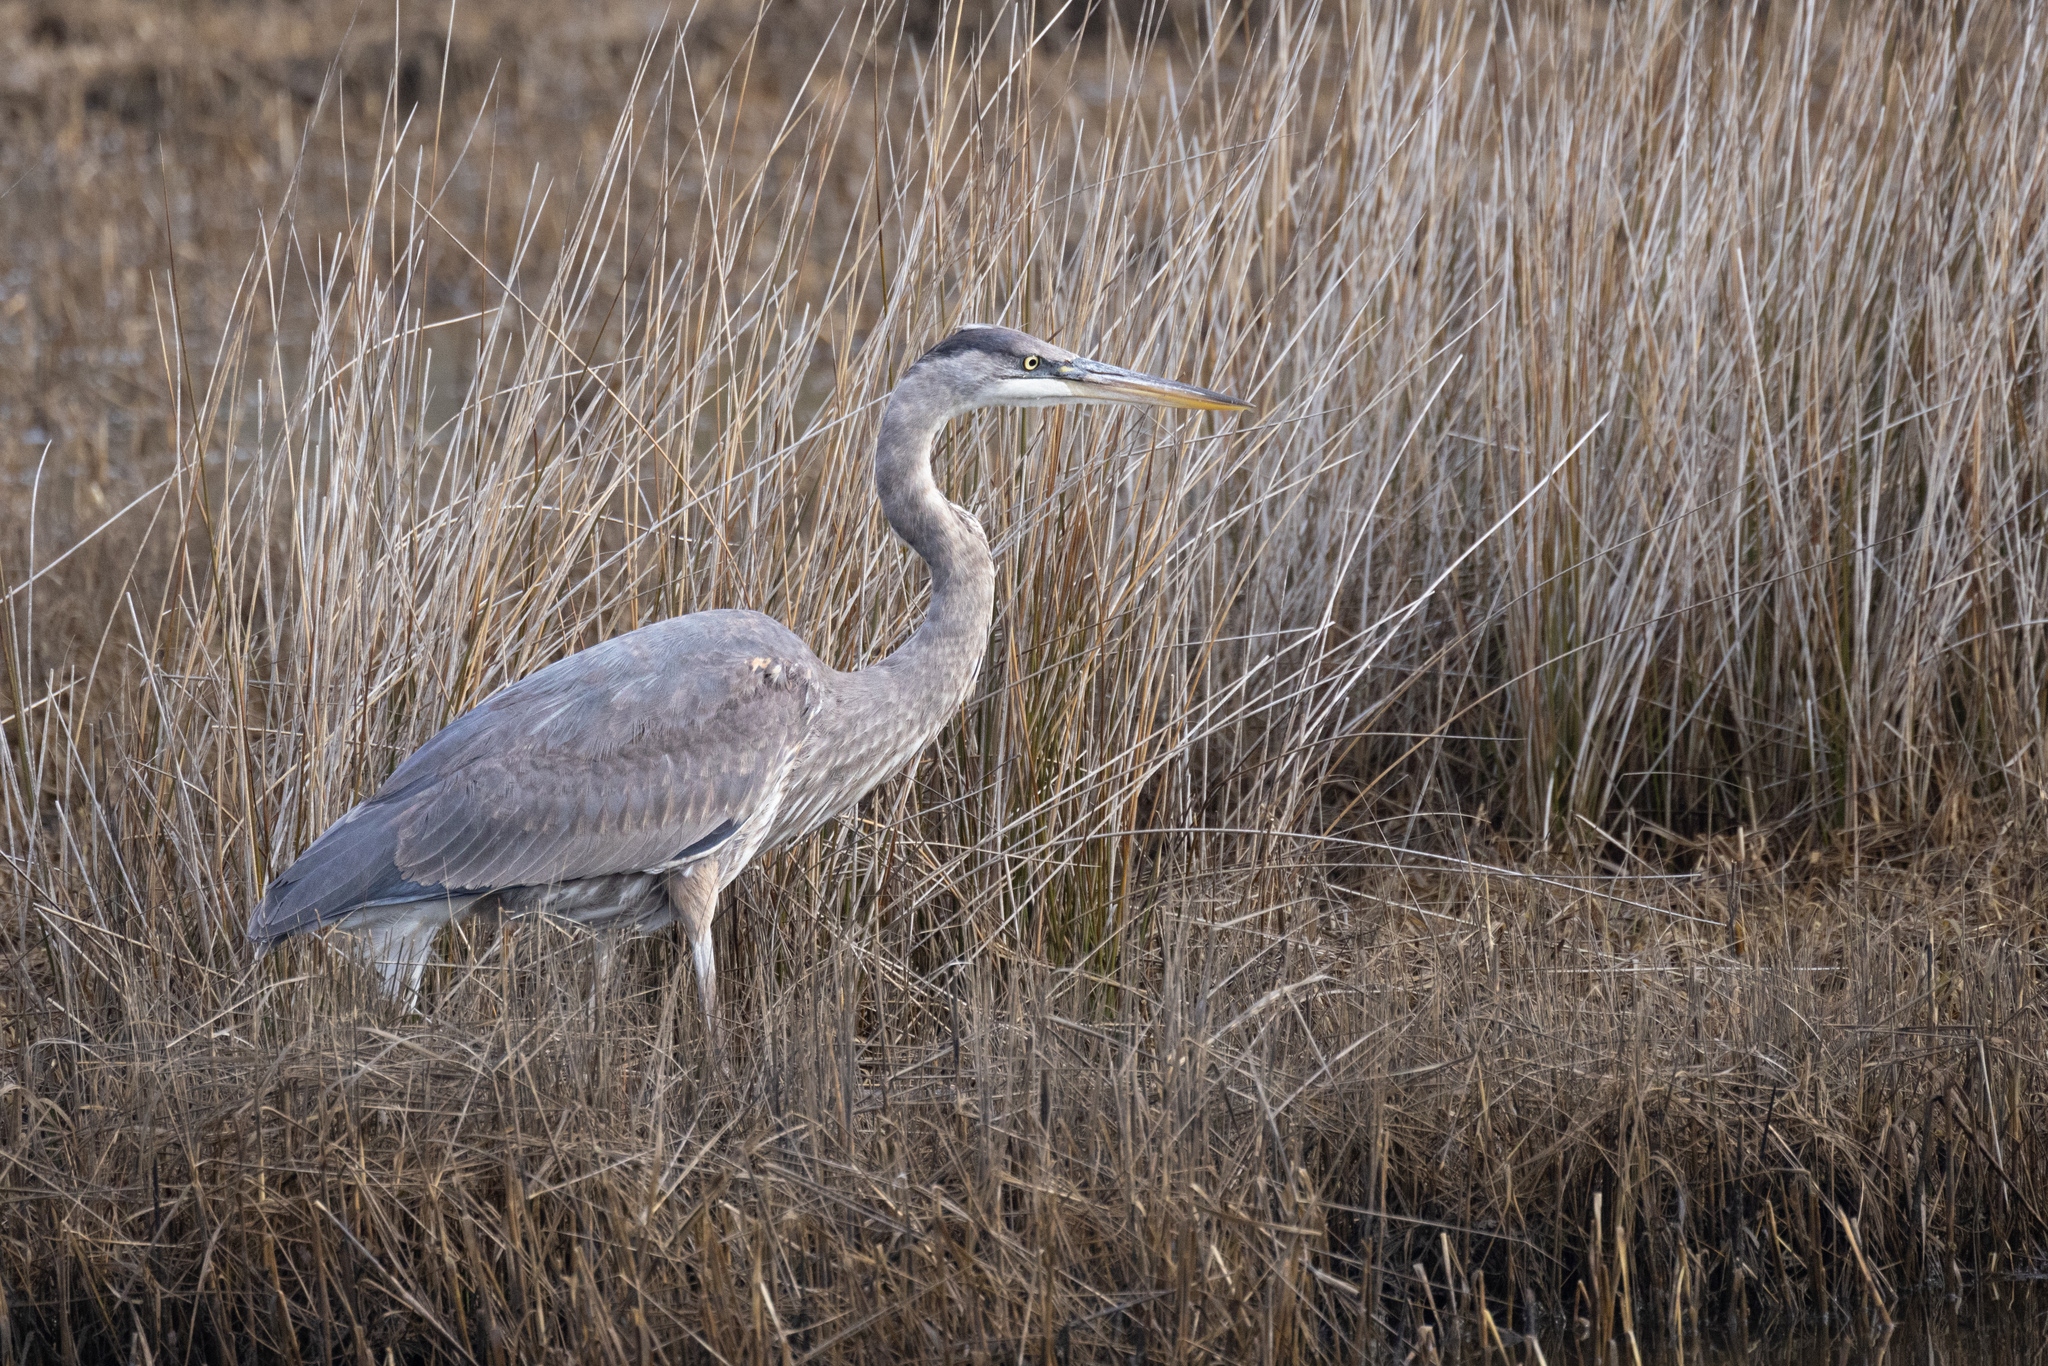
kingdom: Animalia
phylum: Chordata
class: Aves
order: Pelecaniformes
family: Ardeidae
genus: Ardea
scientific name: Ardea herodias
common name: Great blue heron
